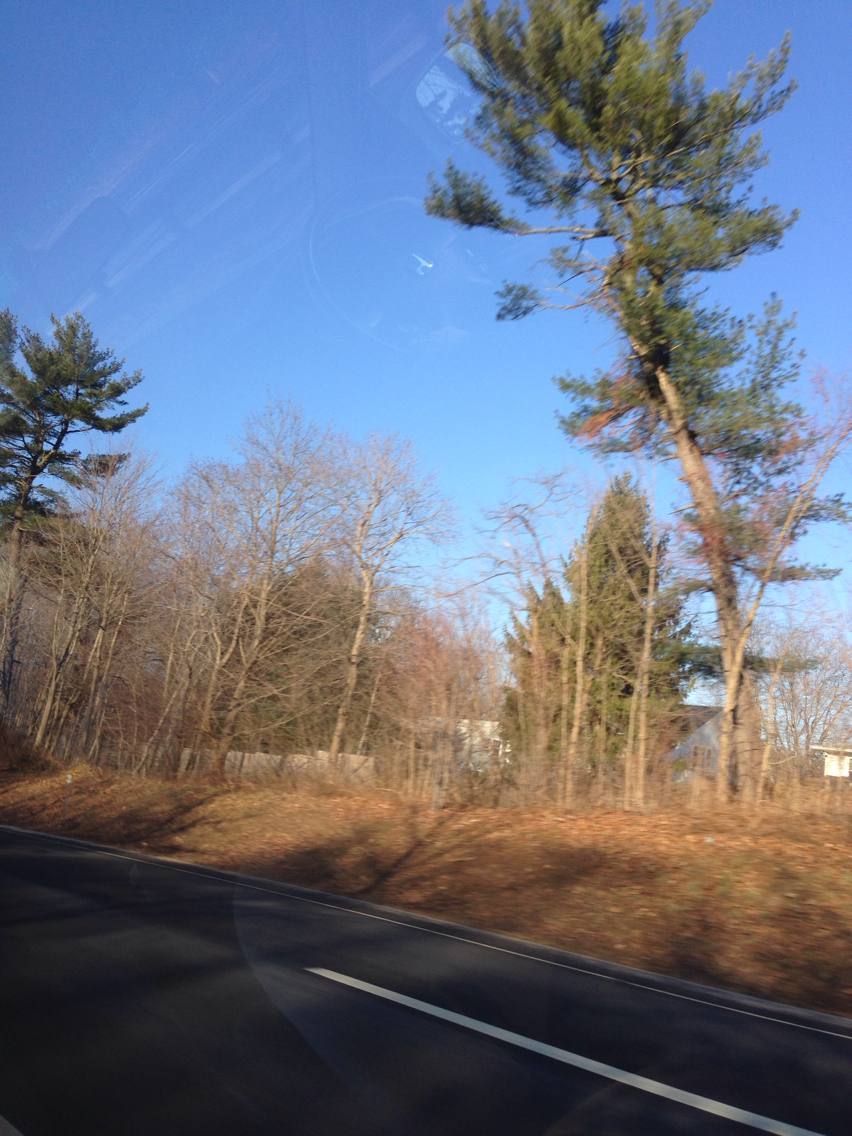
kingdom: Plantae
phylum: Tracheophyta
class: Pinopsida
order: Pinales
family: Pinaceae
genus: Pinus
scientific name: Pinus strobus
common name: Weymouth pine
